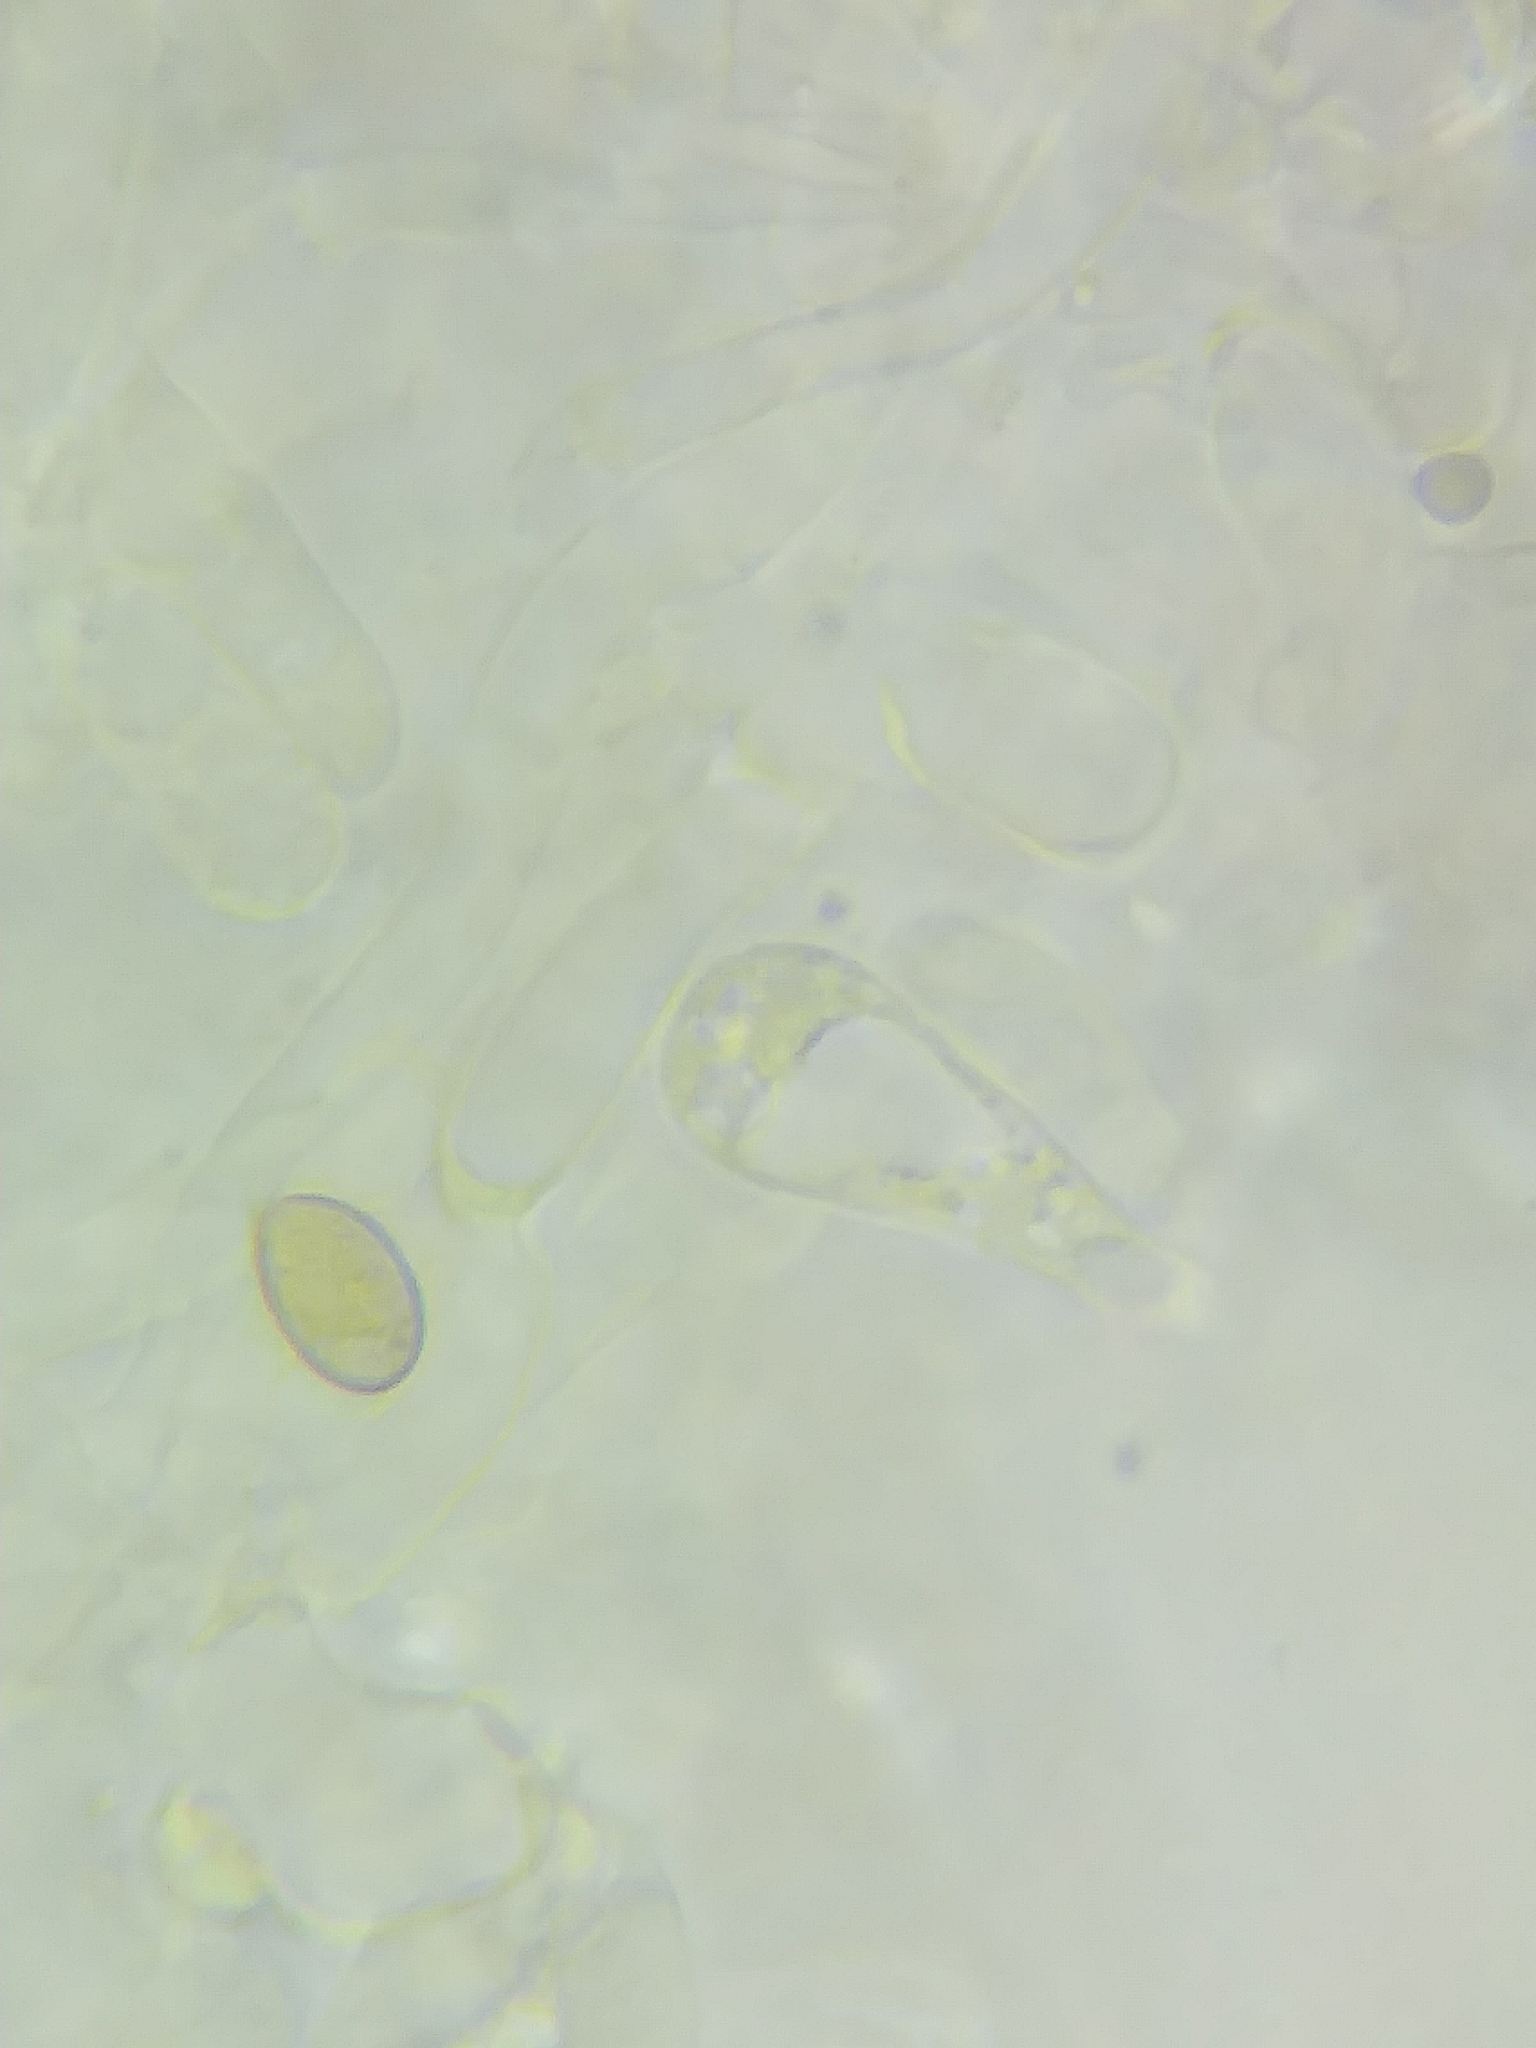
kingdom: Fungi
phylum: Basidiomycota
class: Agaricomycetes
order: Agaricales
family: Inocybaceae
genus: Inocybe
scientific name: Inocybe fuscicothurnata
